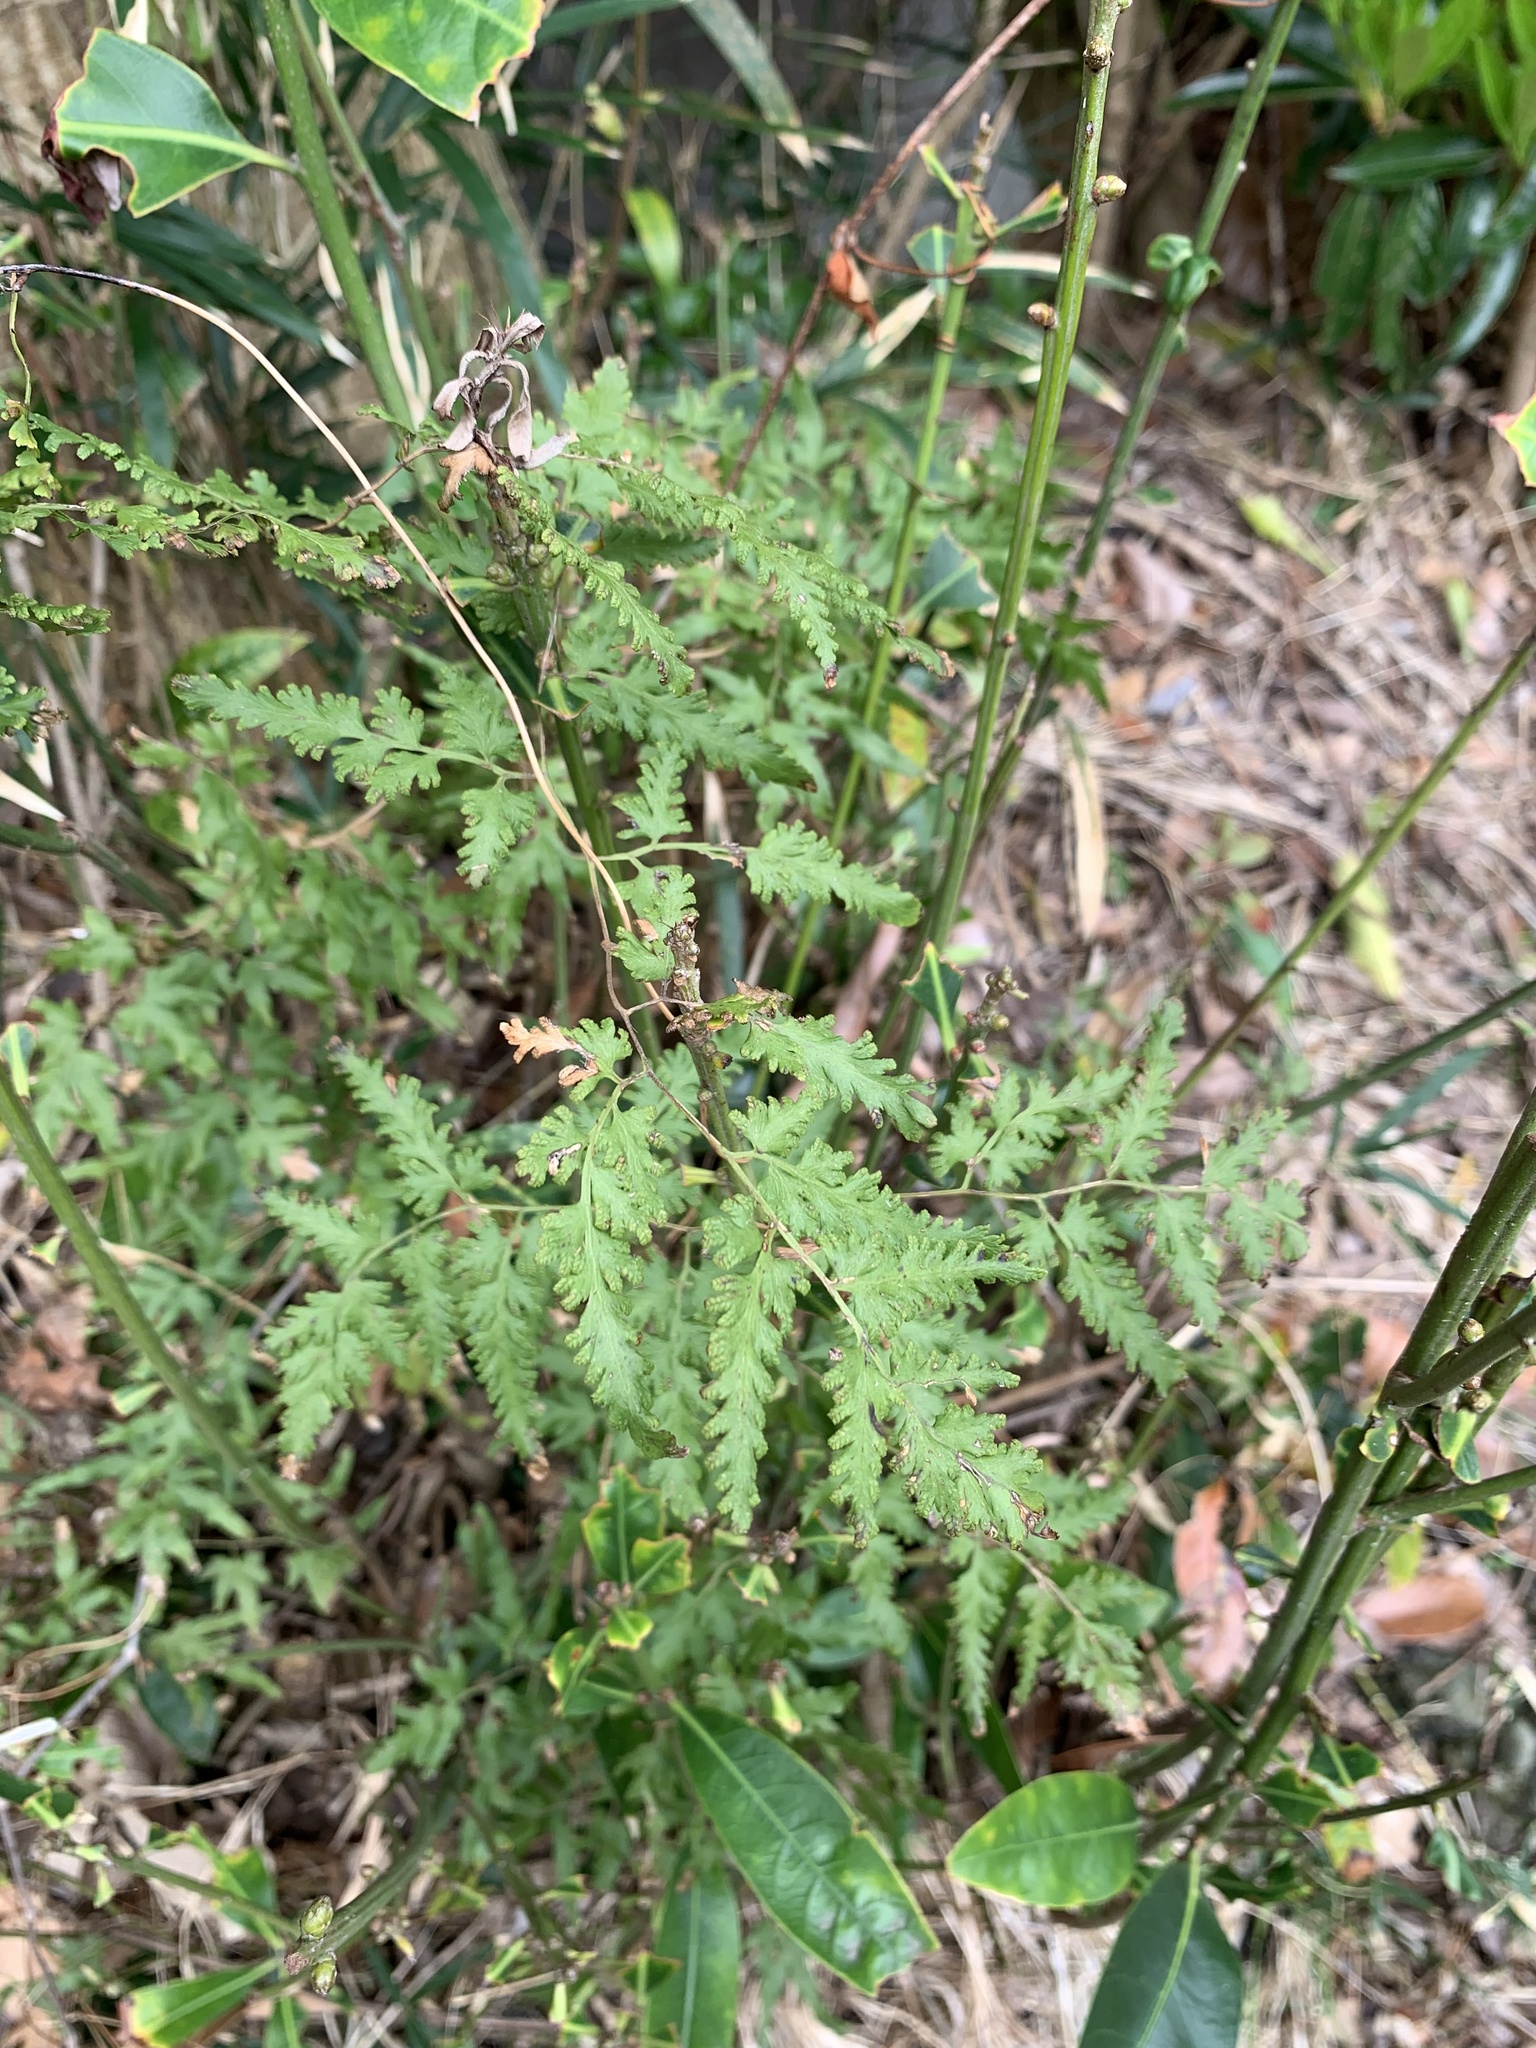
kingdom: Plantae
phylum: Tracheophyta
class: Polypodiopsida
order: Schizaeales
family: Lygodiaceae
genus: Lygodium
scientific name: Lygodium japonicum
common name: Japanese climbing fern
